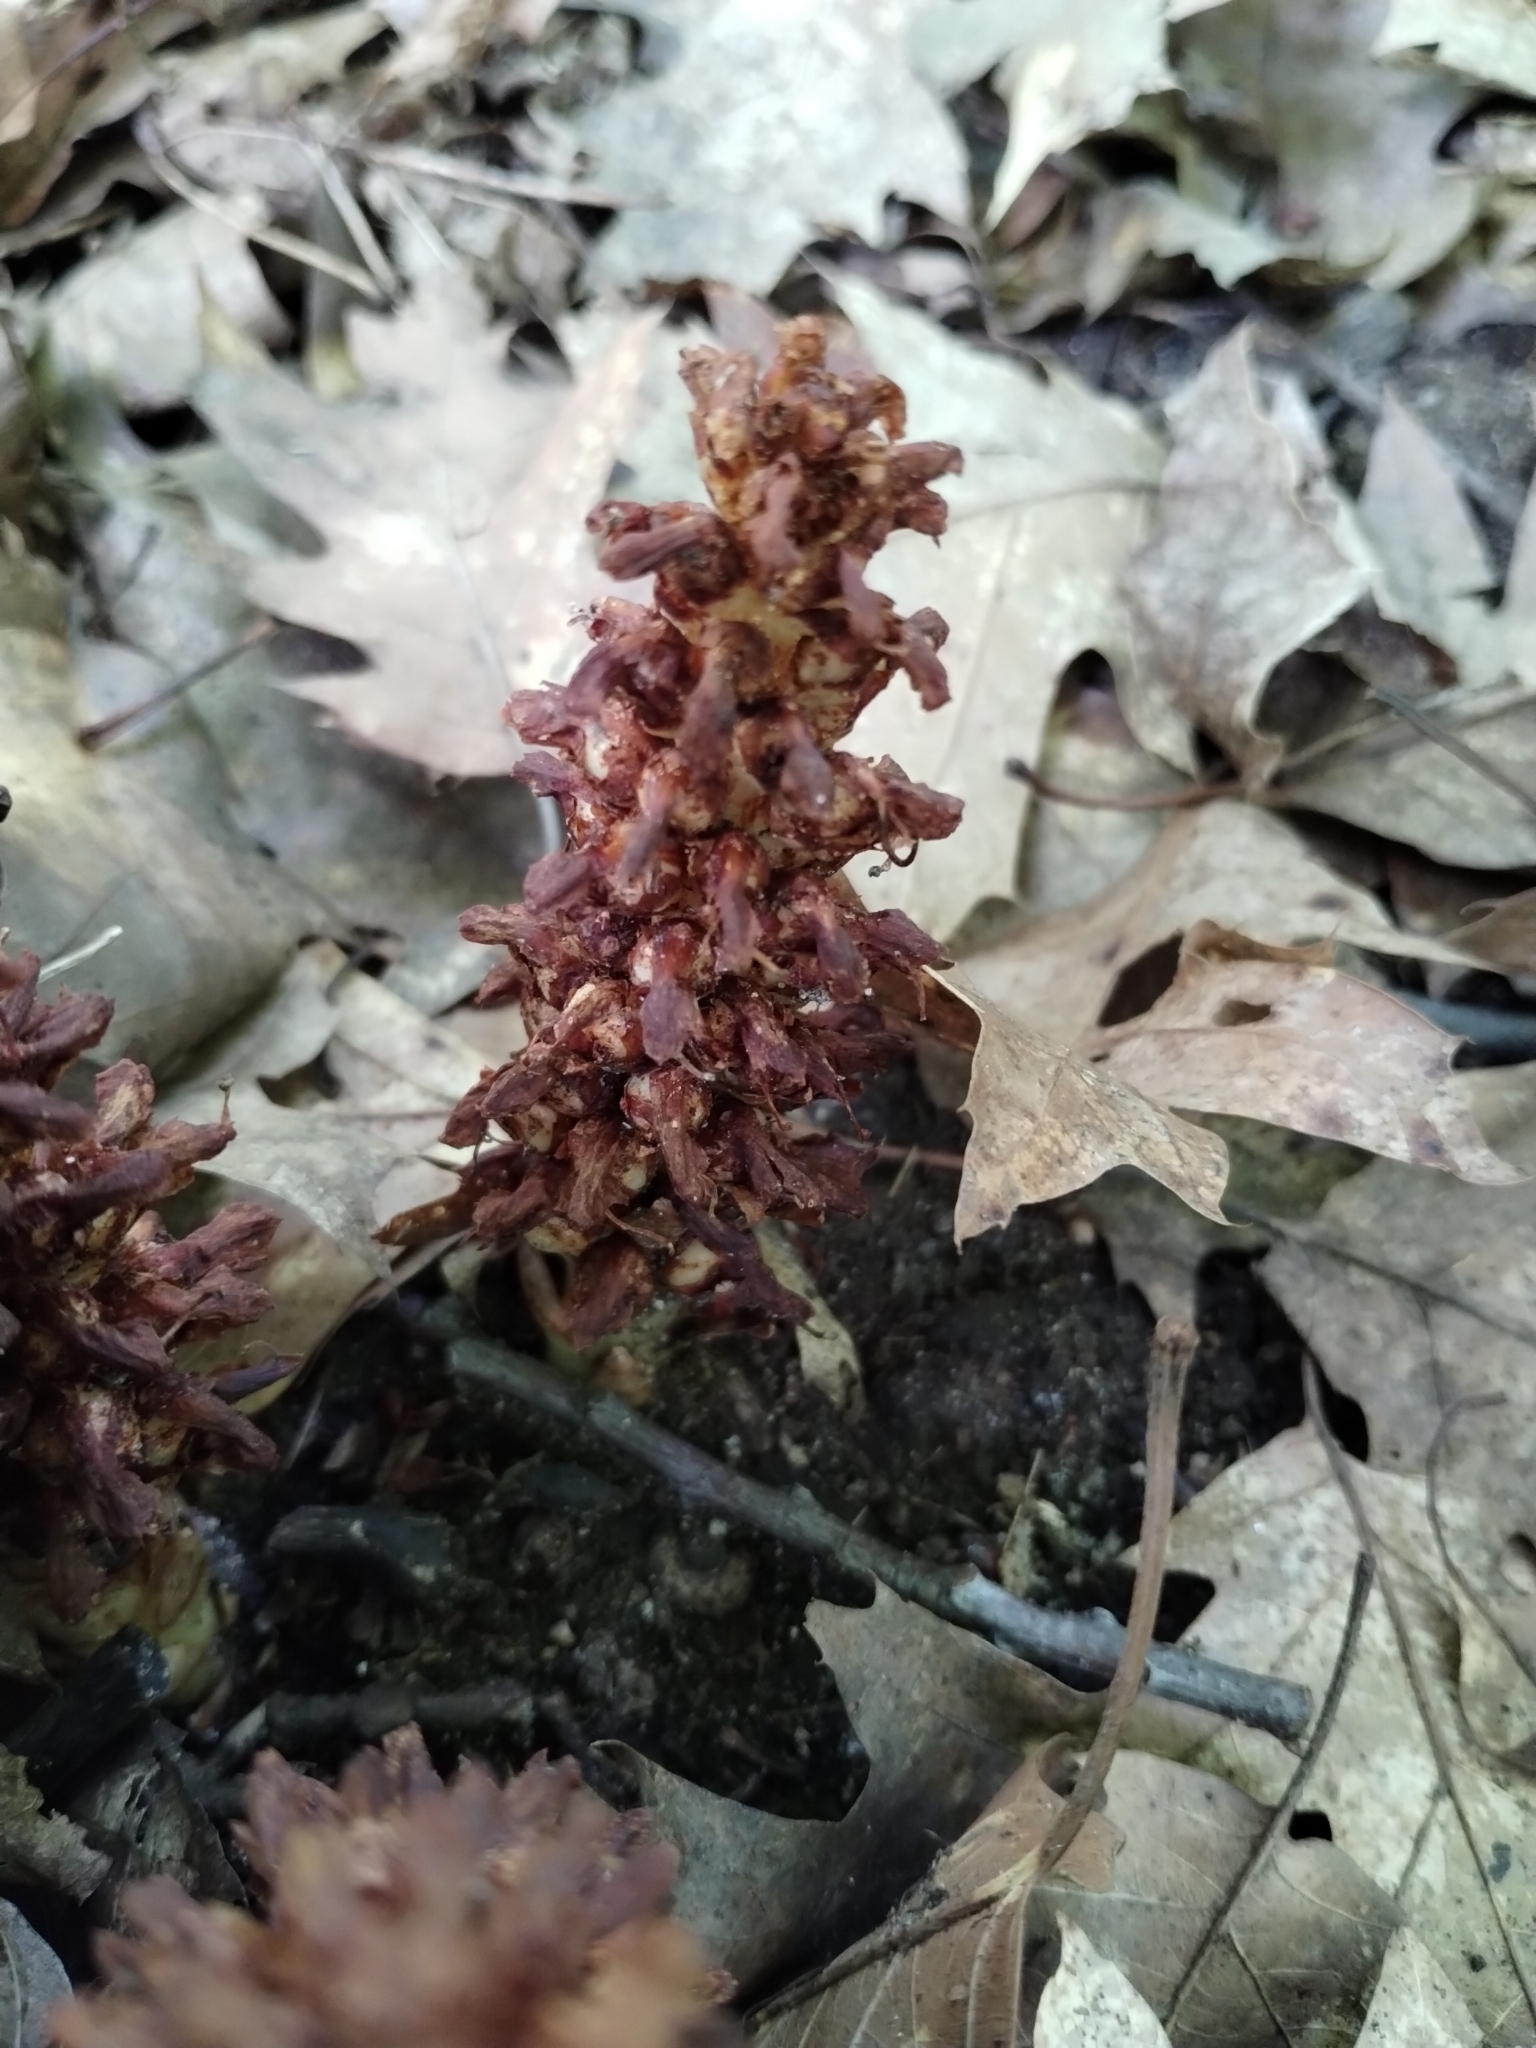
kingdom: Plantae
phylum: Tracheophyta
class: Magnoliopsida
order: Lamiales
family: Orobanchaceae
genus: Conopholis
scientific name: Conopholis americana
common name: American cancer-root
